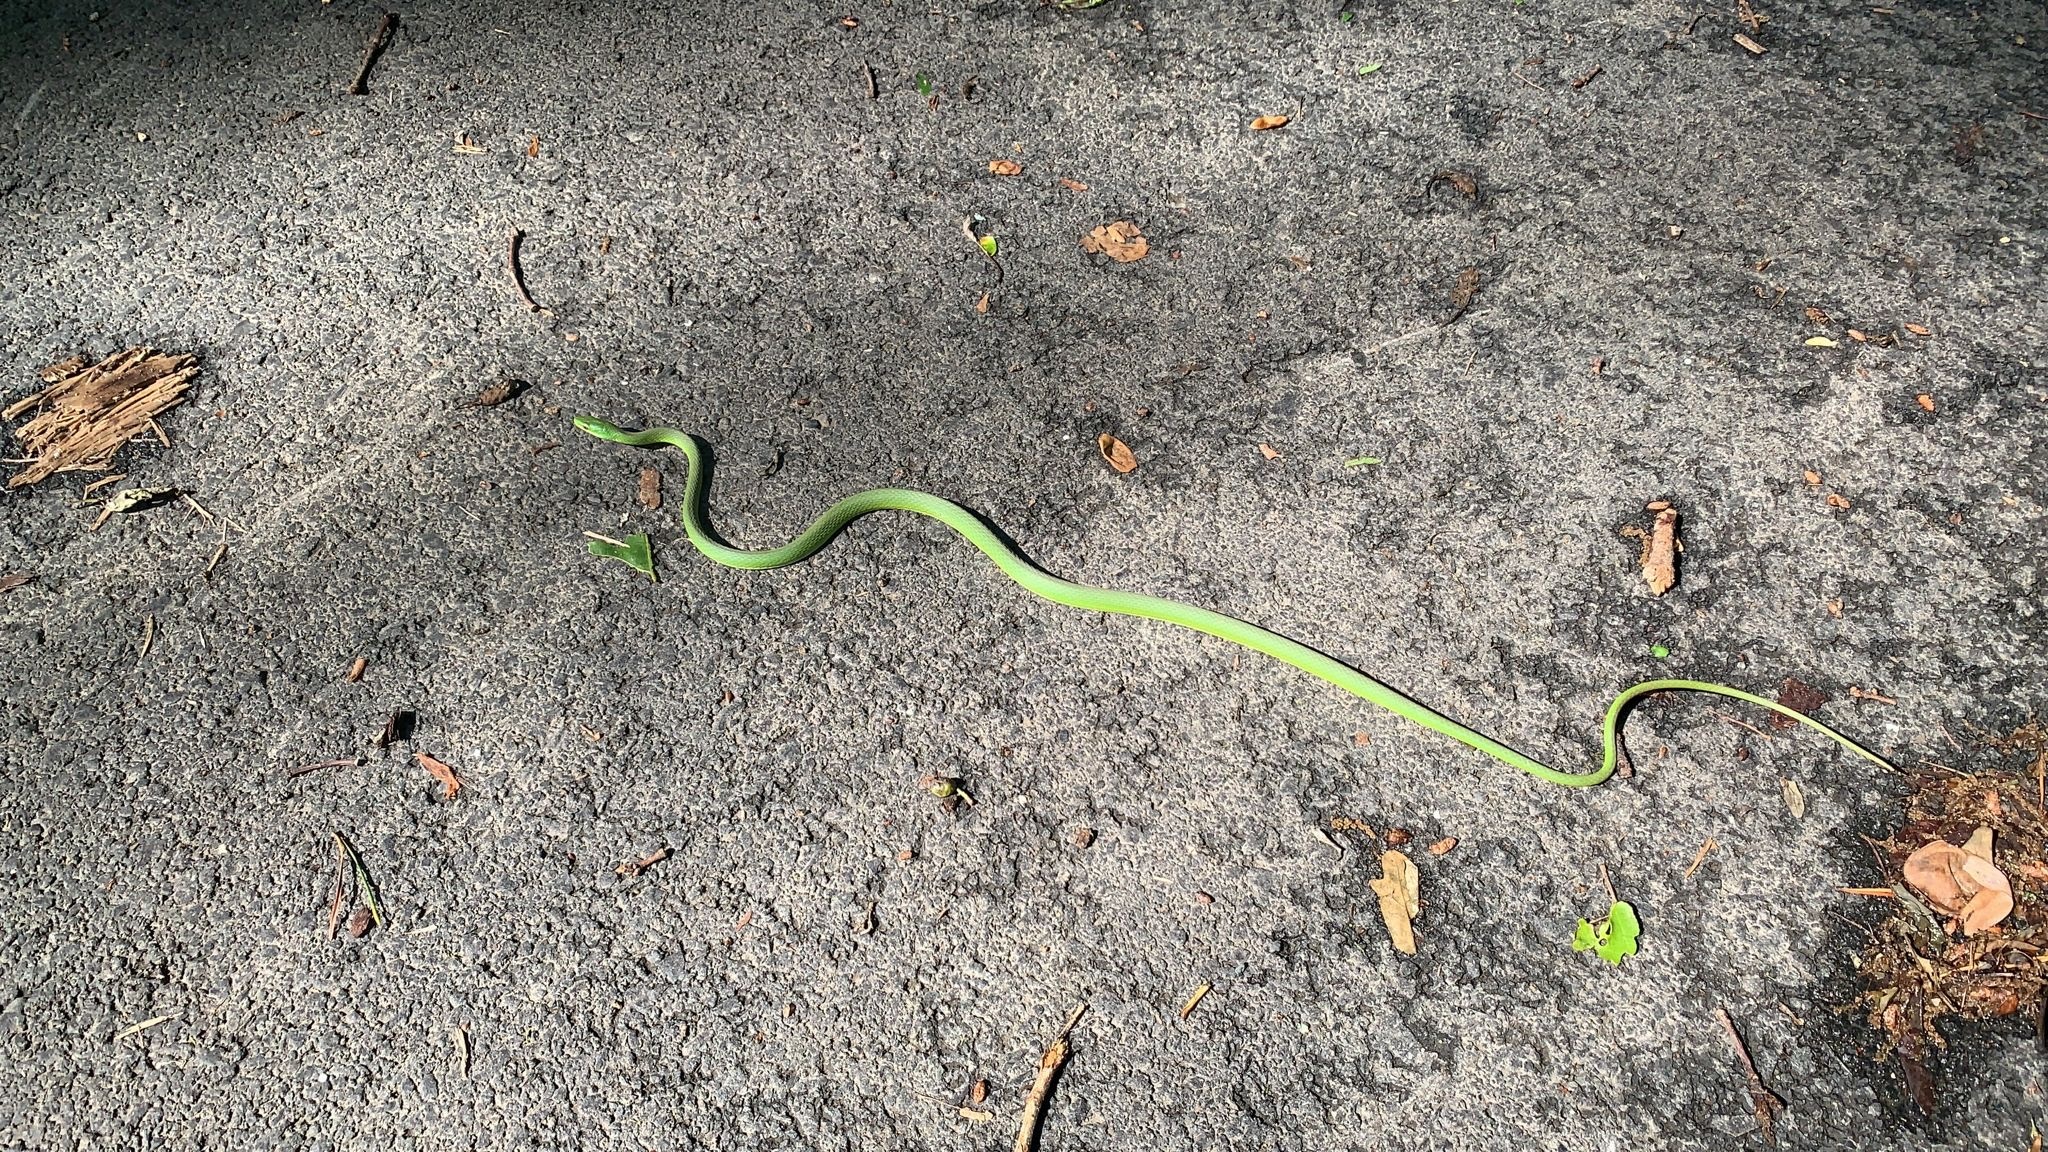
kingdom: Animalia
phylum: Chordata
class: Squamata
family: Colubridae
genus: Opheodrys
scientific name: Opheodrys aestivus
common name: Rough greensnake
